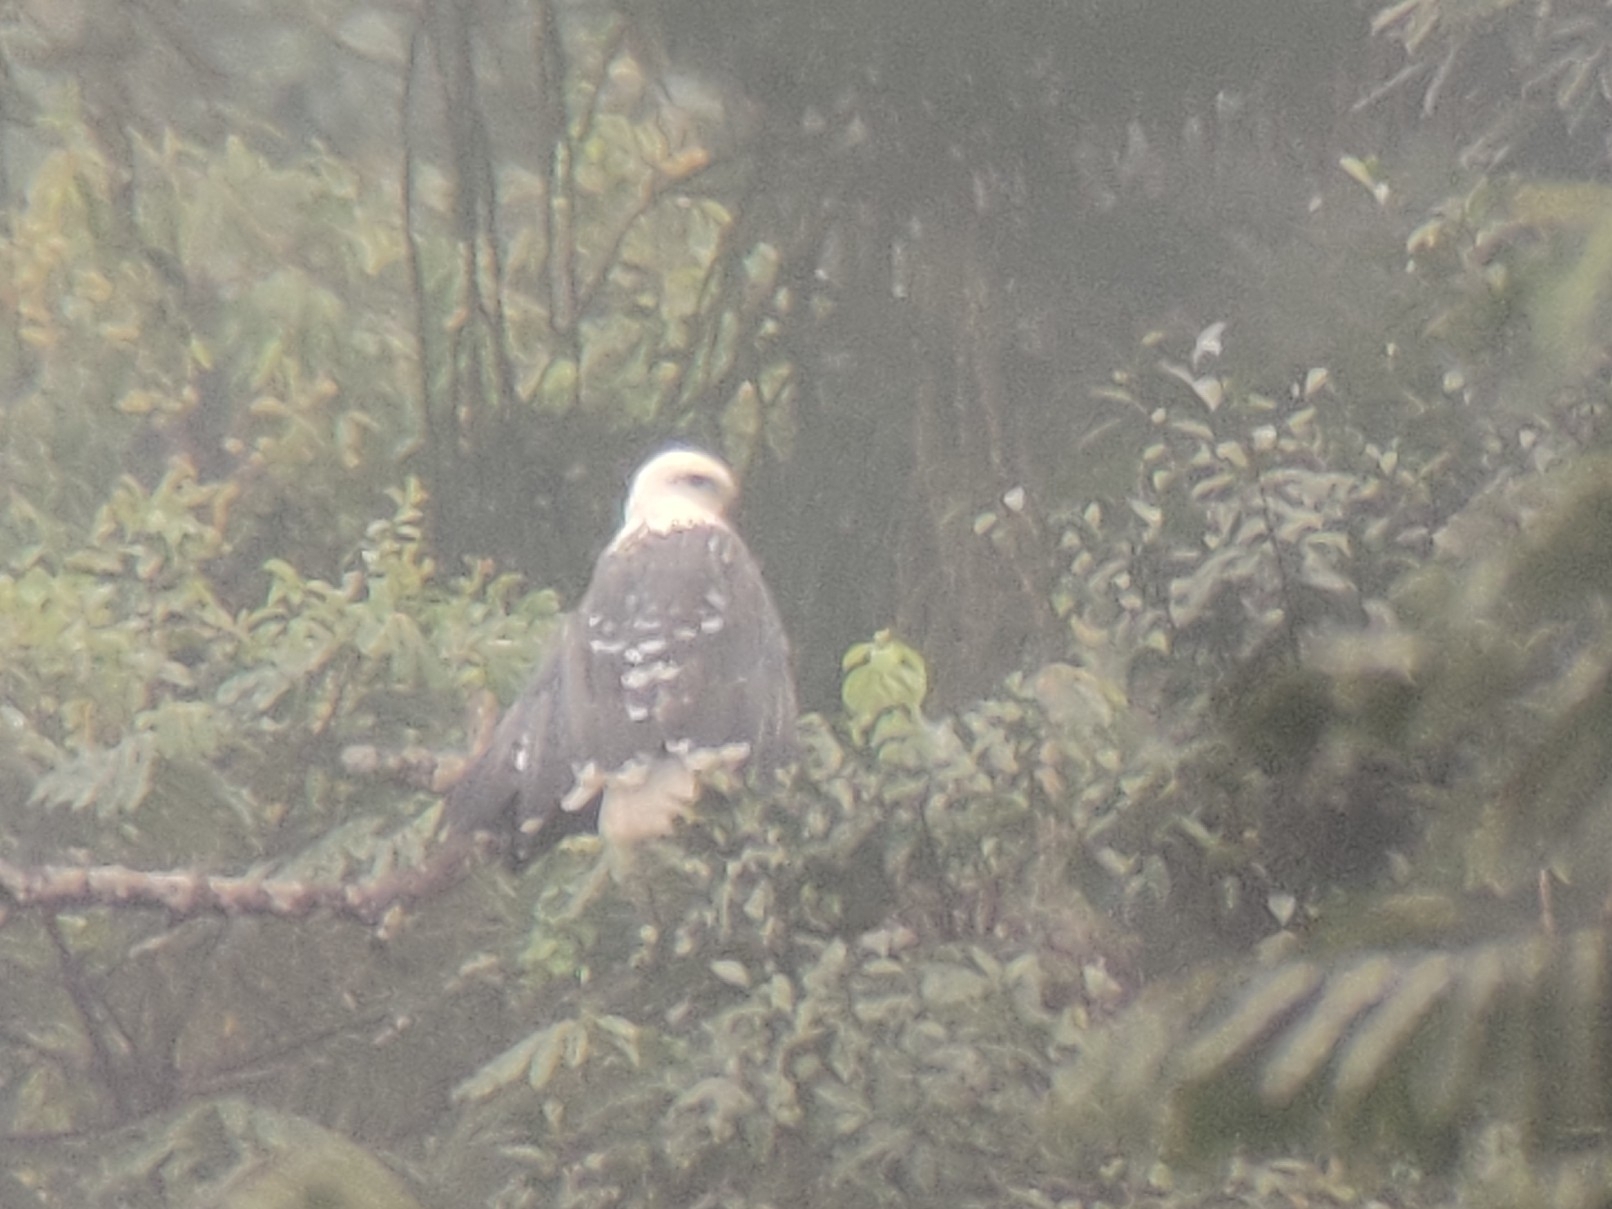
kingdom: Animalia
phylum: Chordata
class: Aves
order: Accipitriformes
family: Accipitridae
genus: Leucopternis
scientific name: Leucopternis polionotus
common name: Mantled hawk
